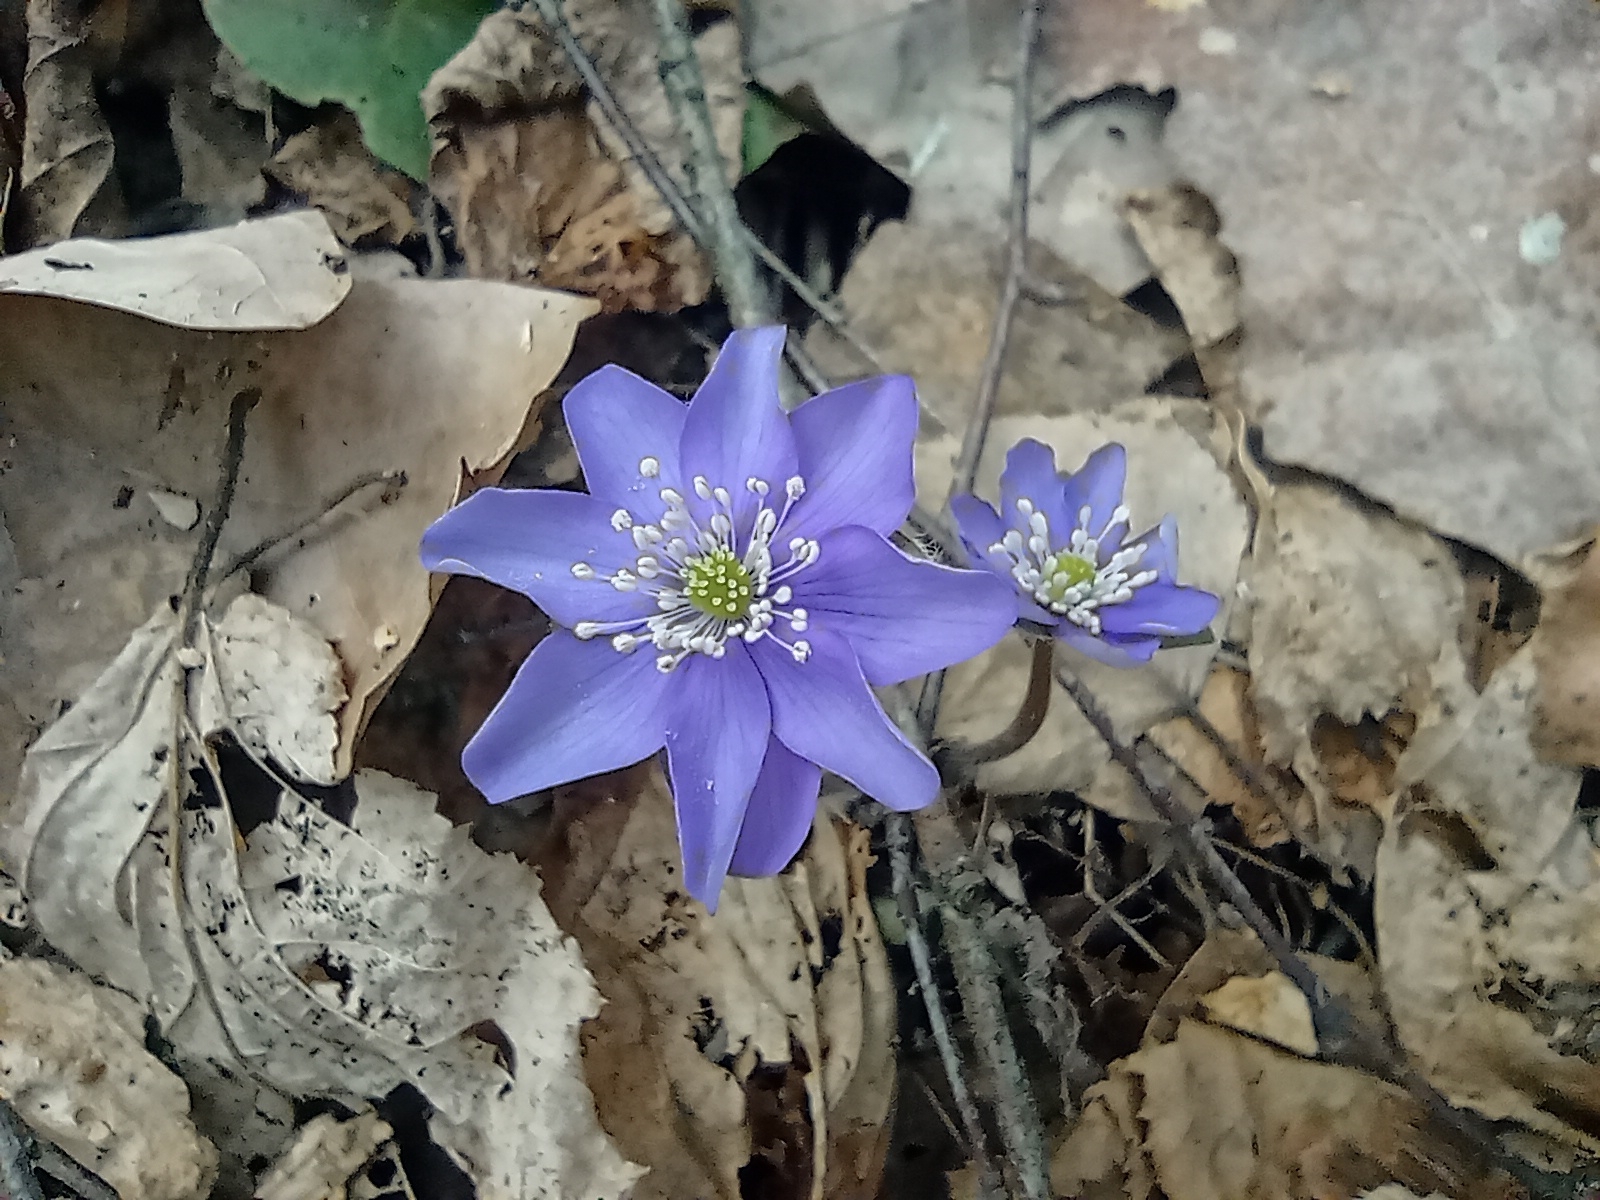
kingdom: Plantae
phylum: Tracheophyta
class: Magnoliopsida
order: Ranunculales
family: Ranunculaceae
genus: Hepatica
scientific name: Hepatica nobilis
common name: Liverleaf
